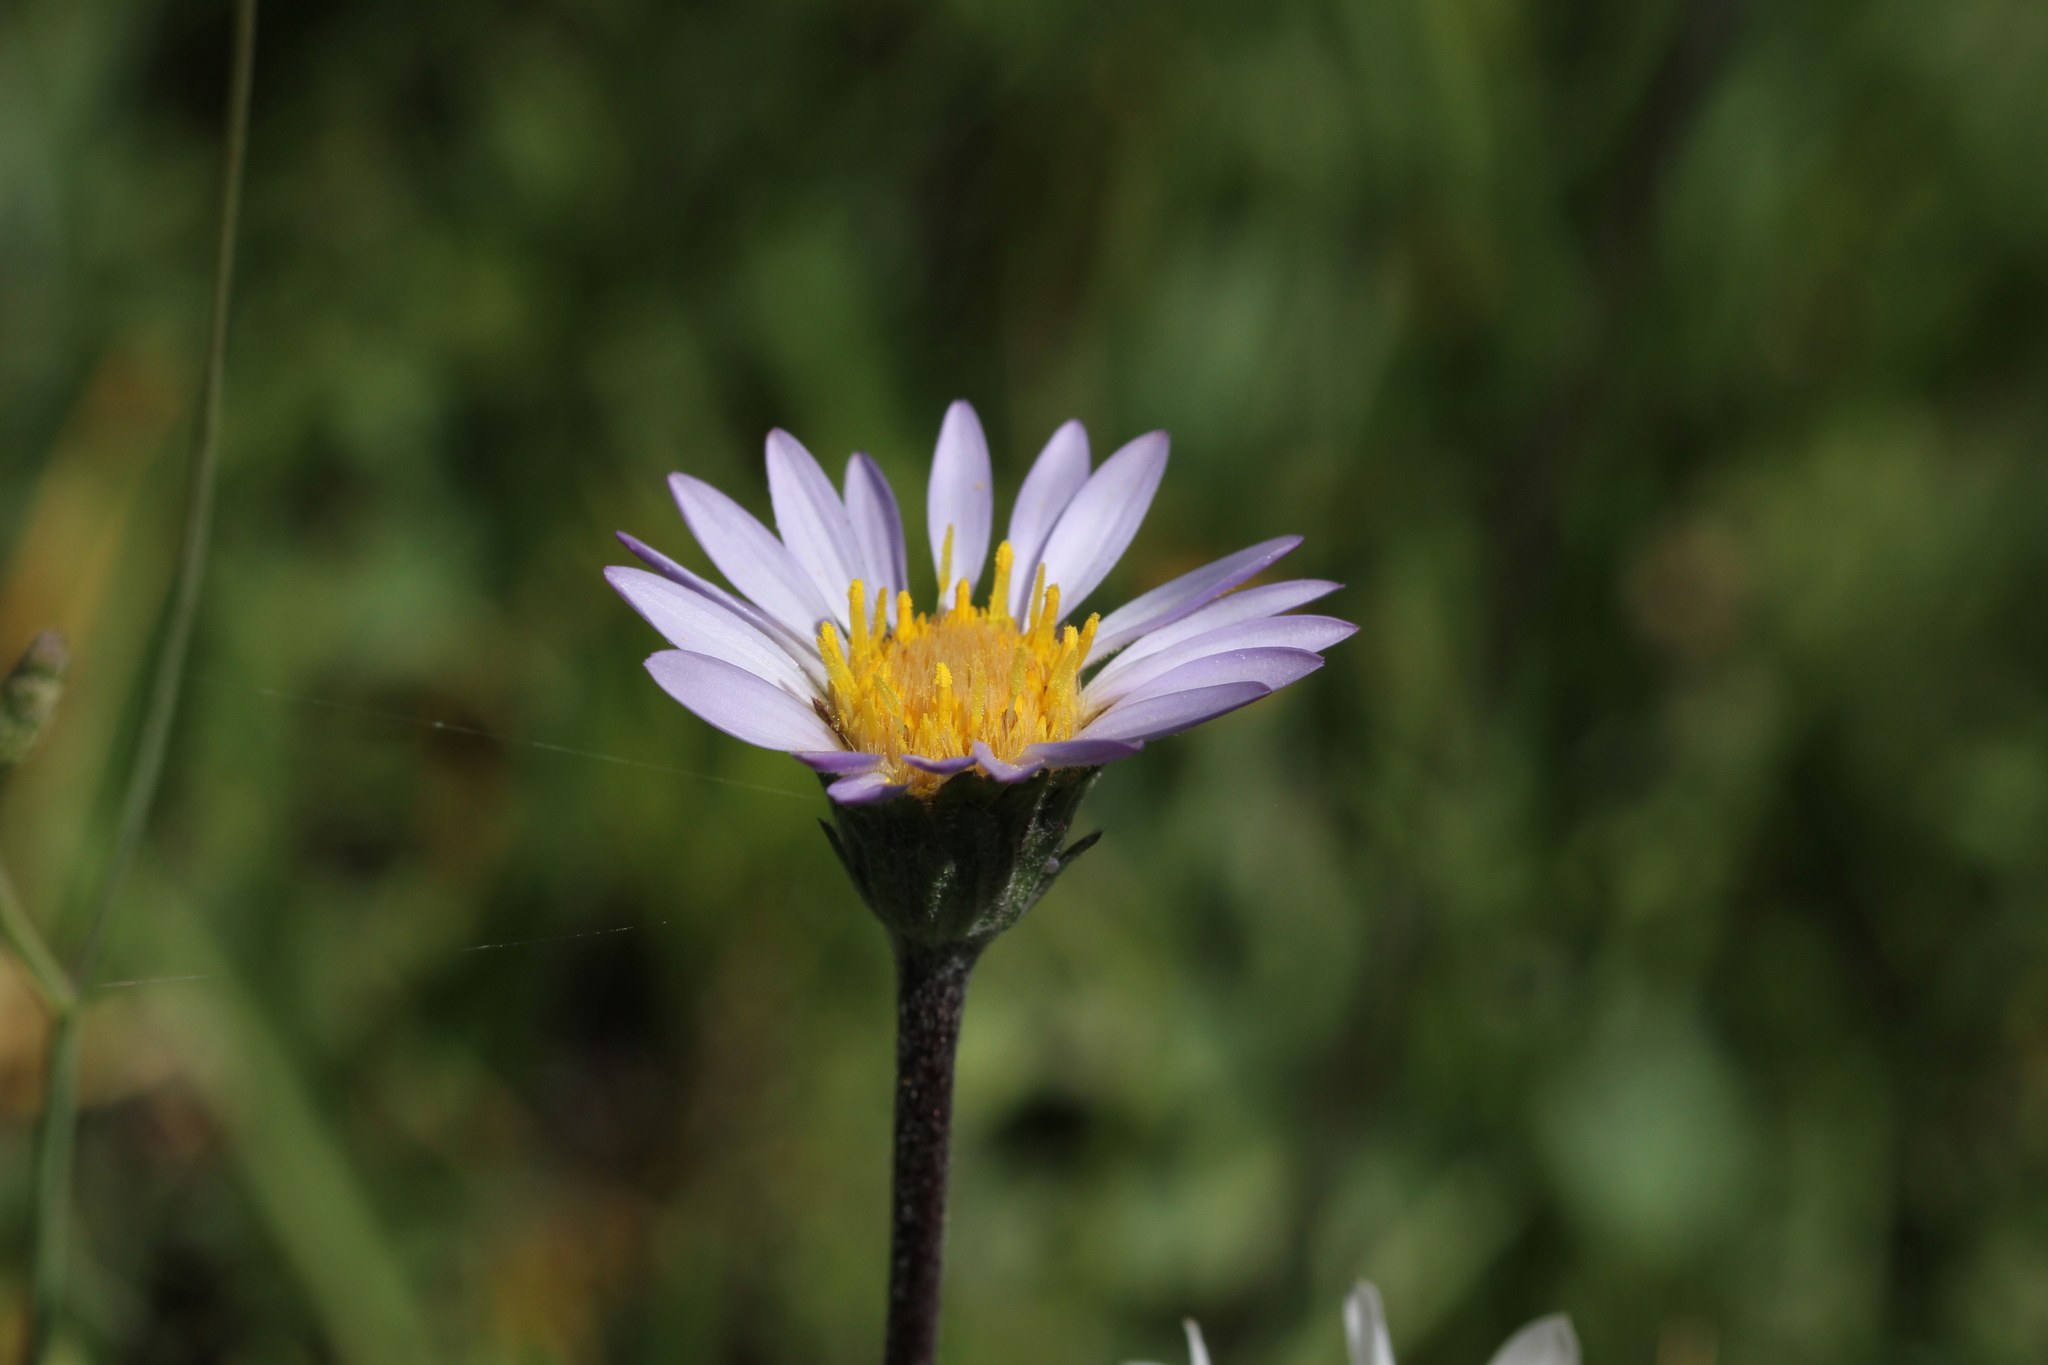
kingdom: Plantae
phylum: Tracheophyta
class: Magnoliopsida
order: Asterales
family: Asteraceae
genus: Oreostemma
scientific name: Oreostemma alpigenum
